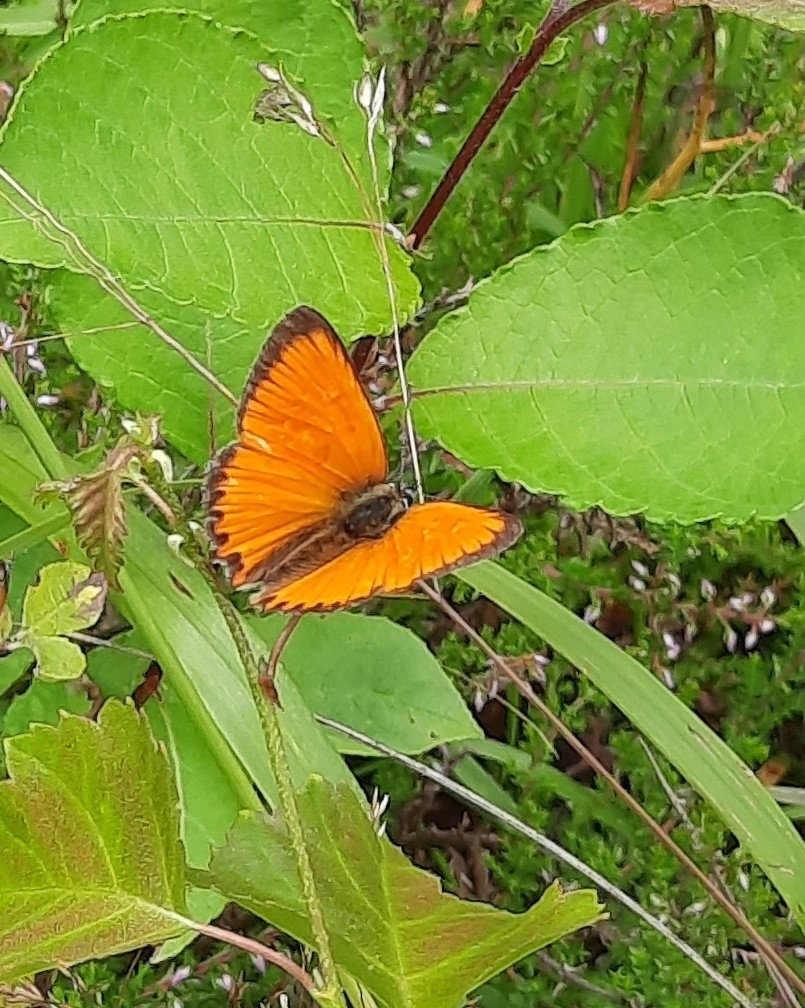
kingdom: Animalia
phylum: Arthropoda
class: Insecta
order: Lepidoptera
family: Lycaenidae
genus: Lycaena
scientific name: Lycaena virgaureae
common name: Scarce copper
